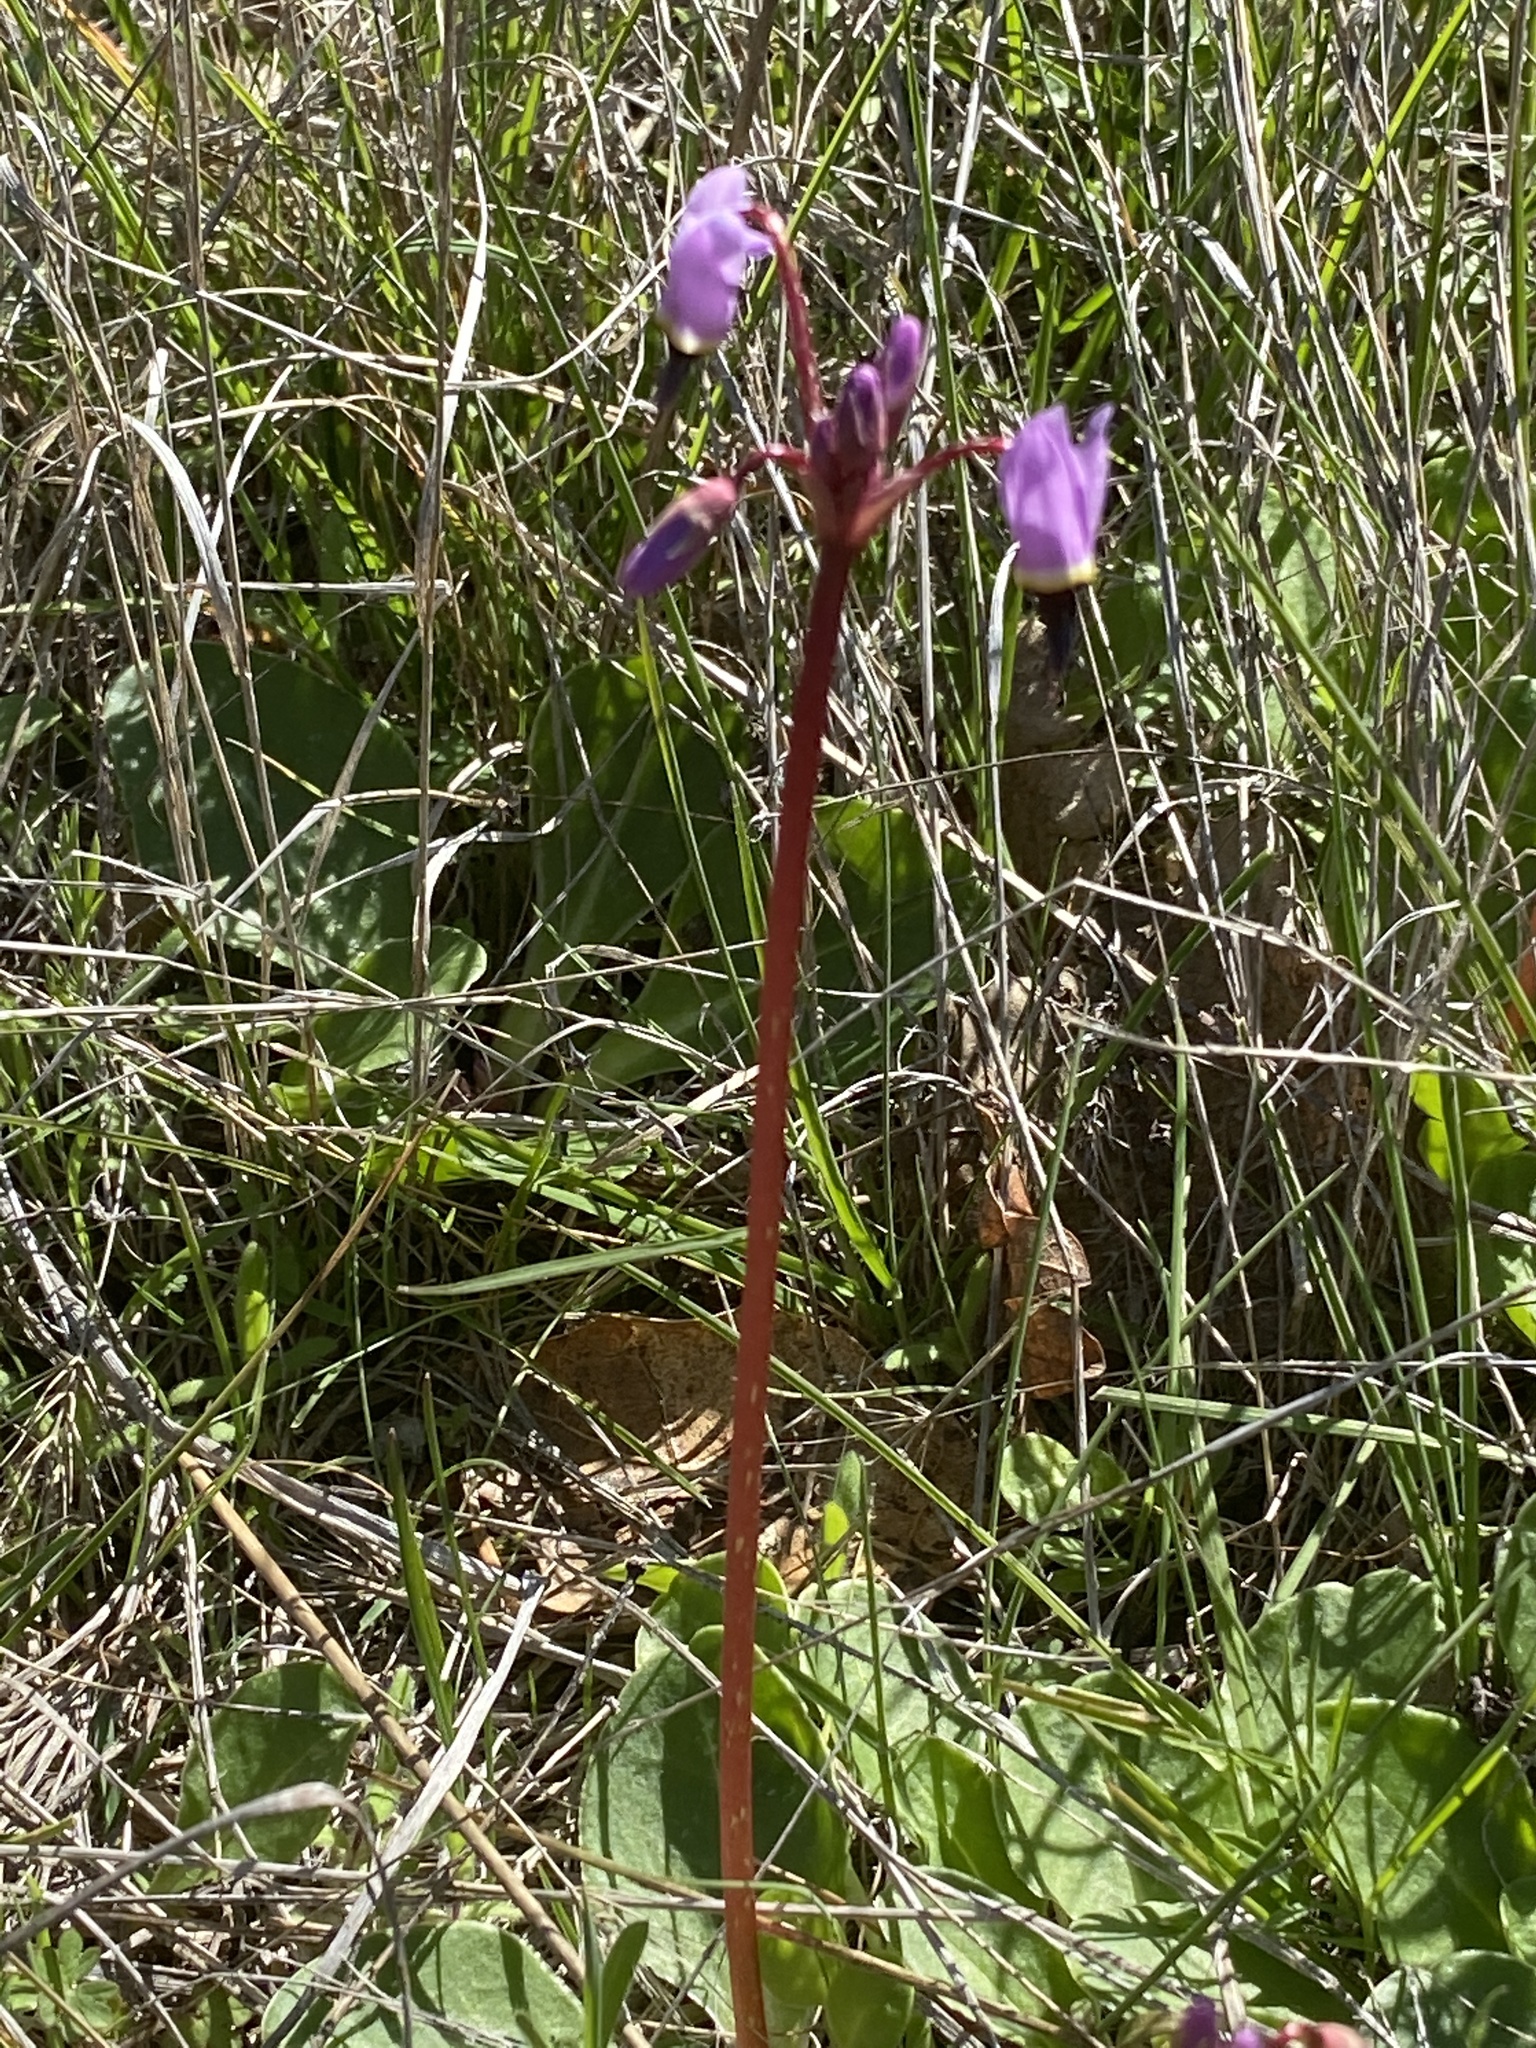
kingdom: Plantae
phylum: Tracheophyta
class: Magnoliopsida
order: Ericales
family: Primulaceae
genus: Dodecatheon
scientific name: Dodecatheon hendersonii
